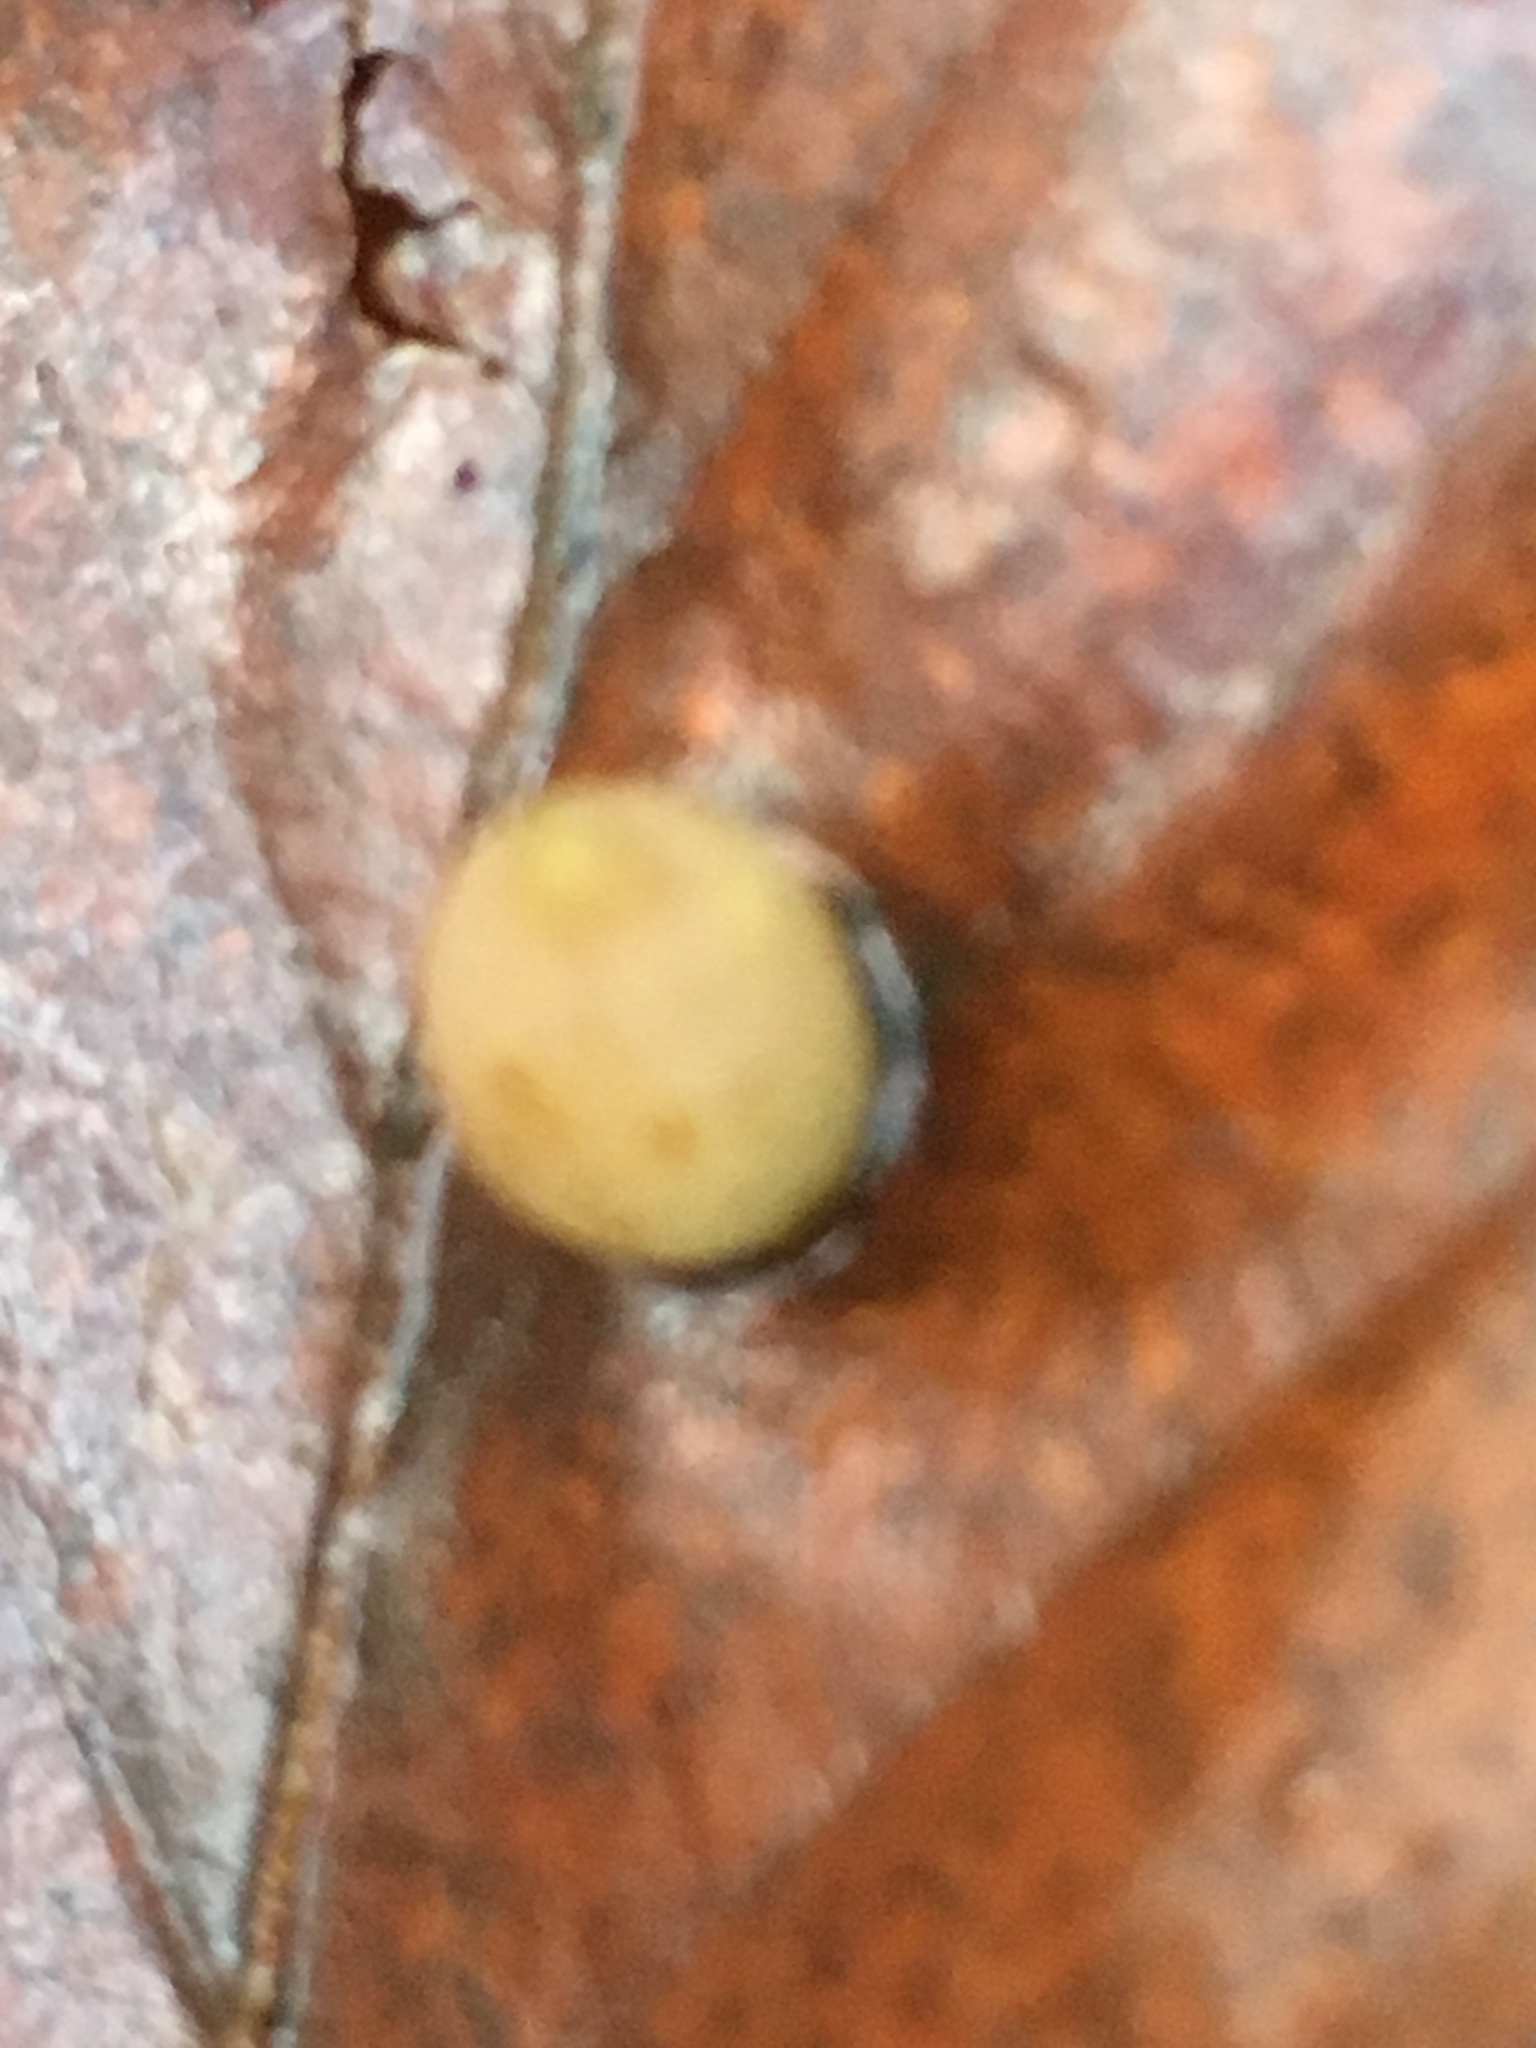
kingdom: Animalia
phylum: Arthropoda
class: Insecta
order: Diptera
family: Cecidomyiidae
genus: Mikiola
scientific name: Mikiola fagi
